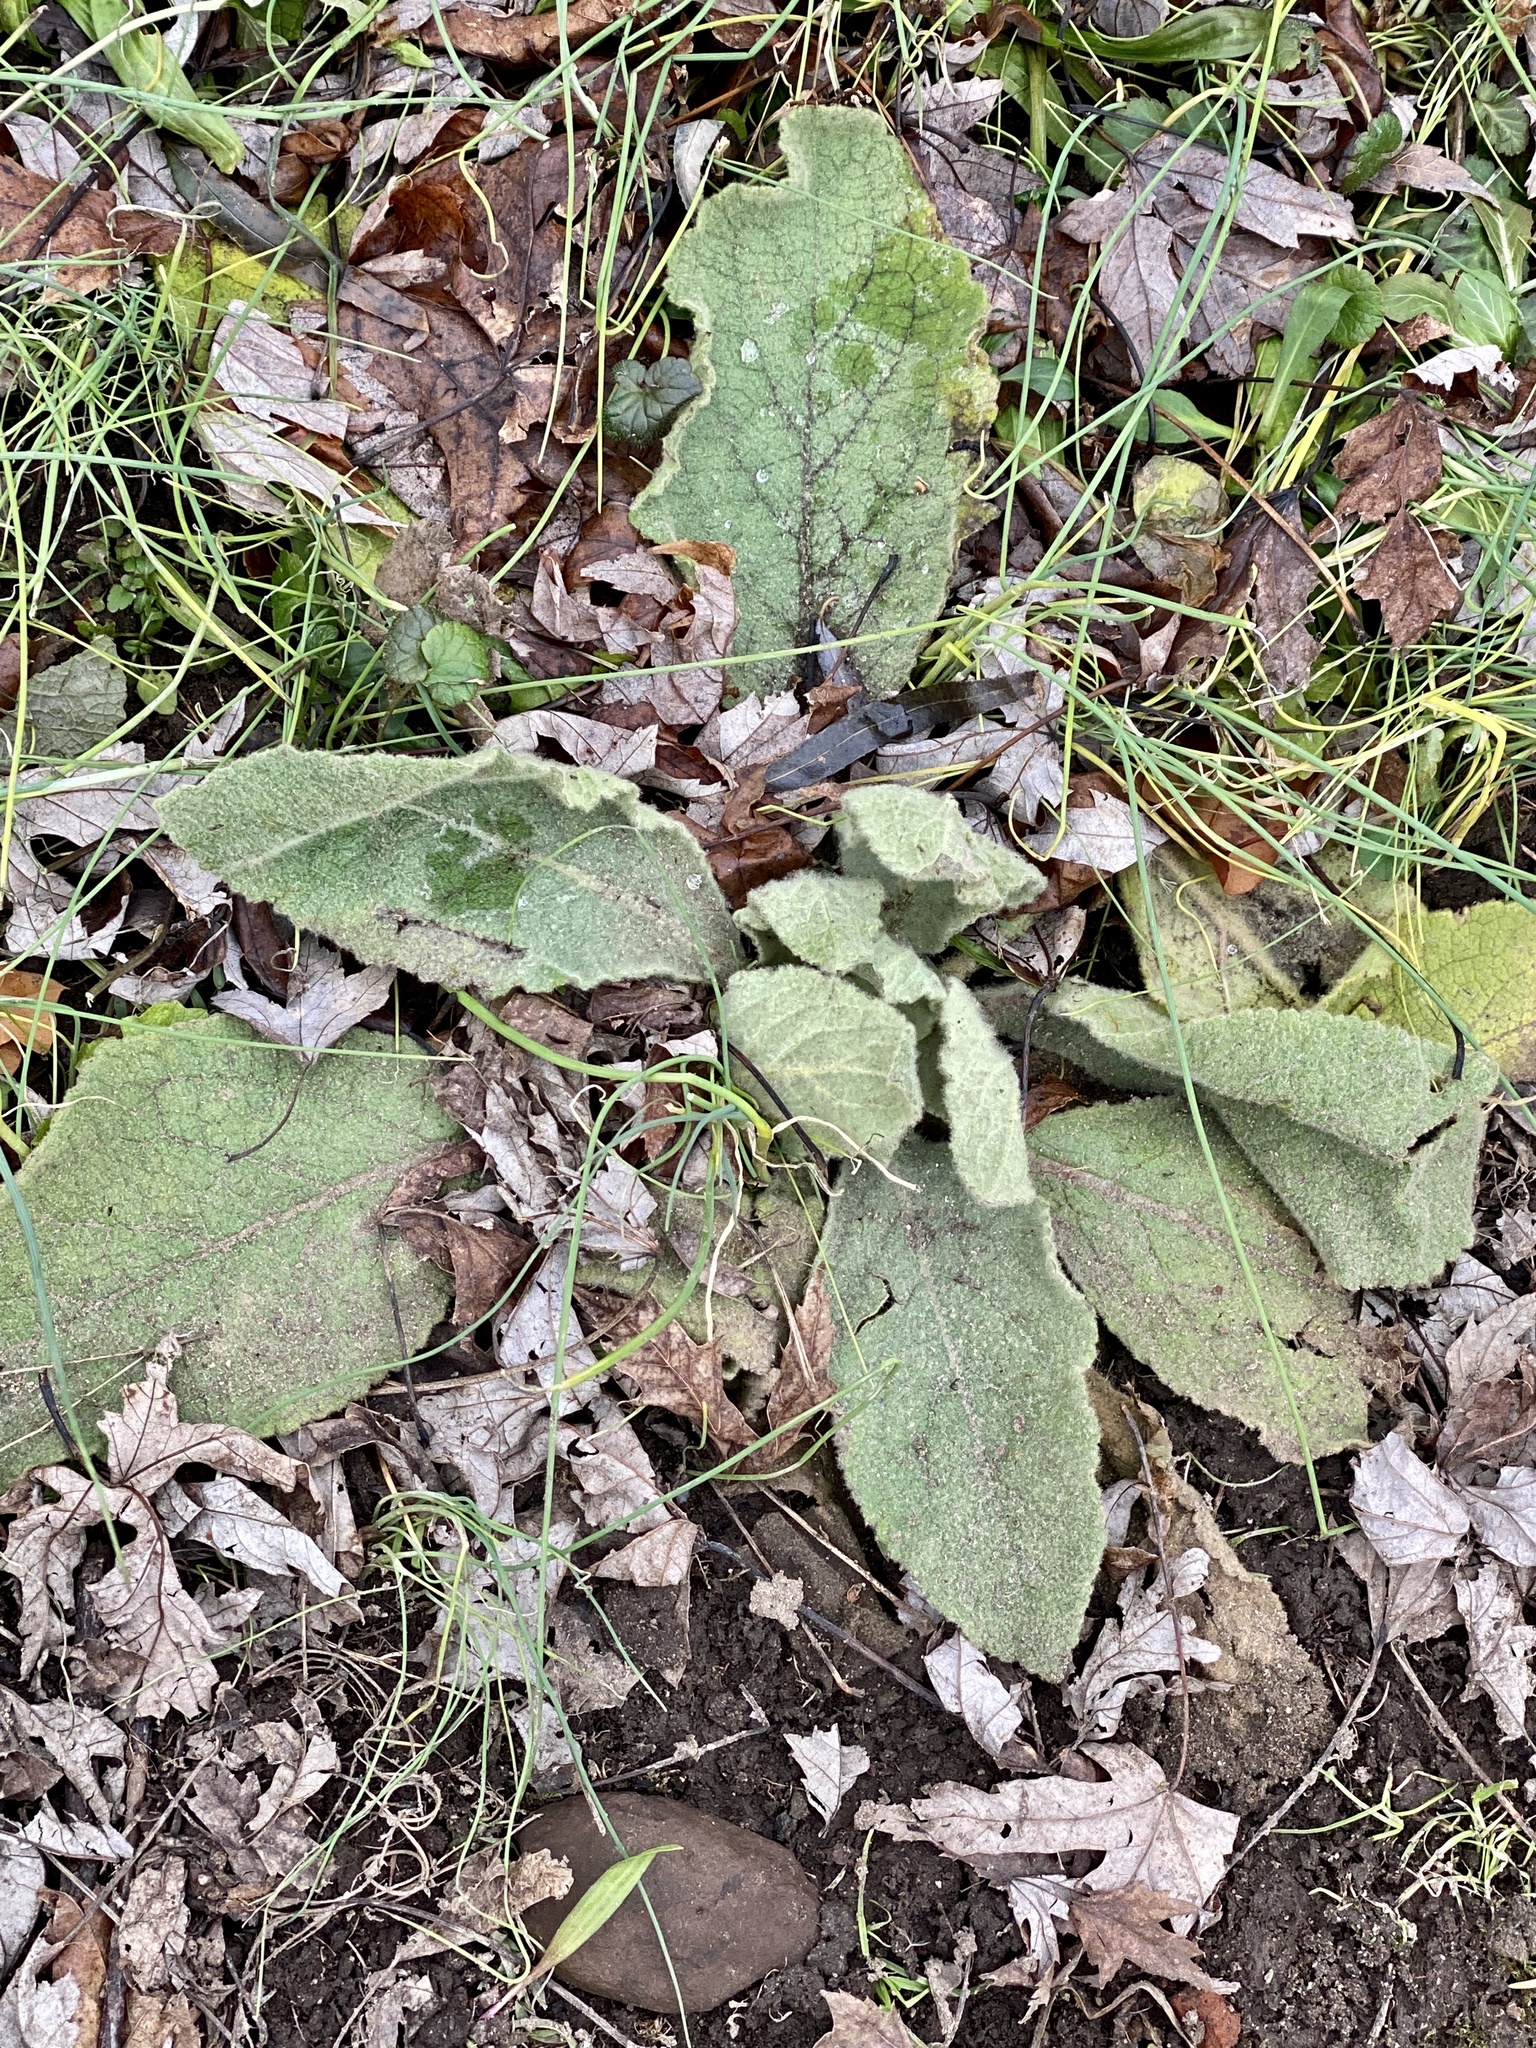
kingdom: Plantae
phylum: Tracheophyta
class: Magnoliopsida
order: Lamiales
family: Scrophulariaceae
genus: Verbascum
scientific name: Verbascum thapsus
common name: Common mullein
